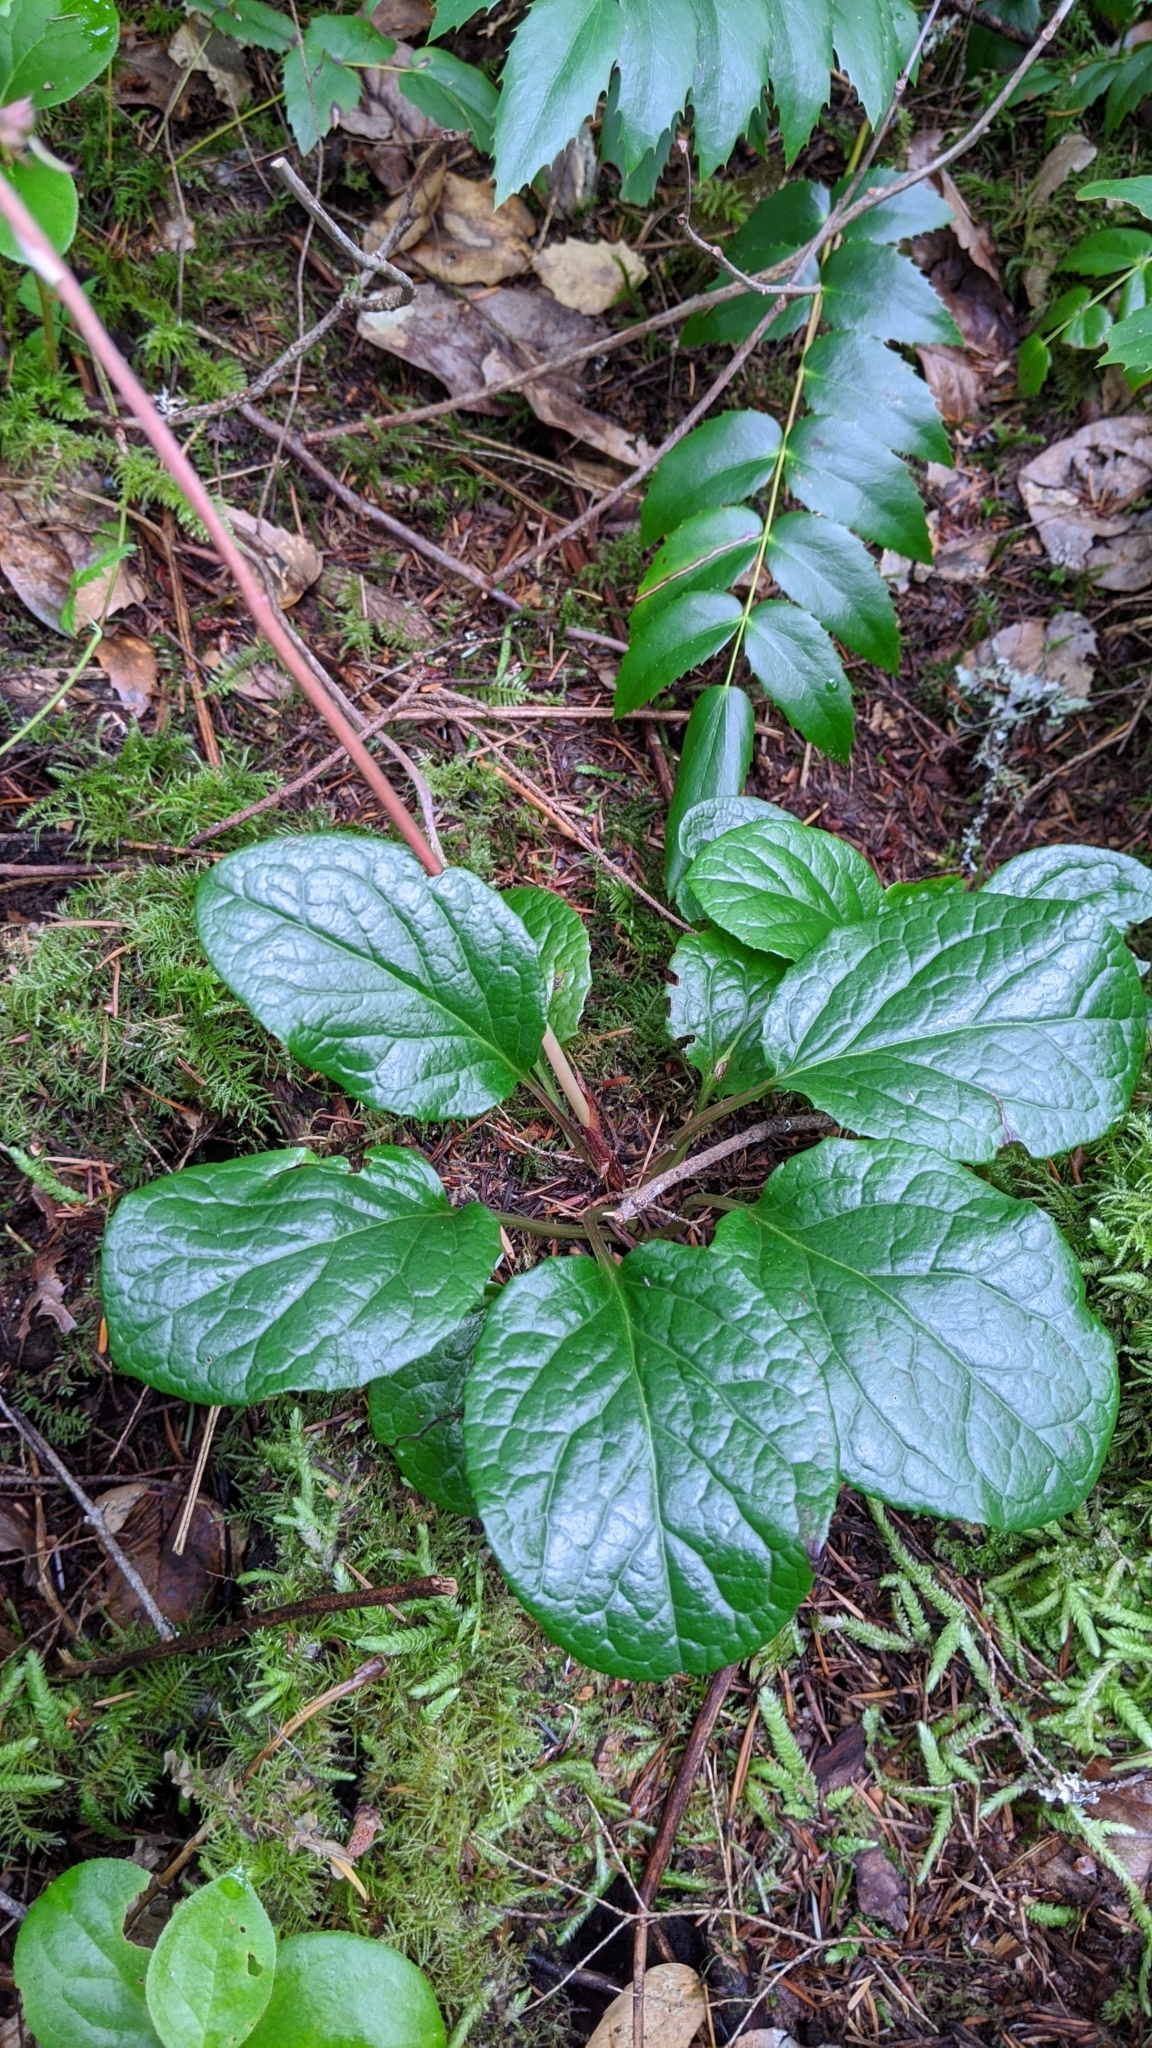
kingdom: Plantae
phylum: Tracheophyta
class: Magnoliopsida
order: Ericales
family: Ericaceae
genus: Pyrola
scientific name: Pyrola asarifolia
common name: Bog wintergreen
